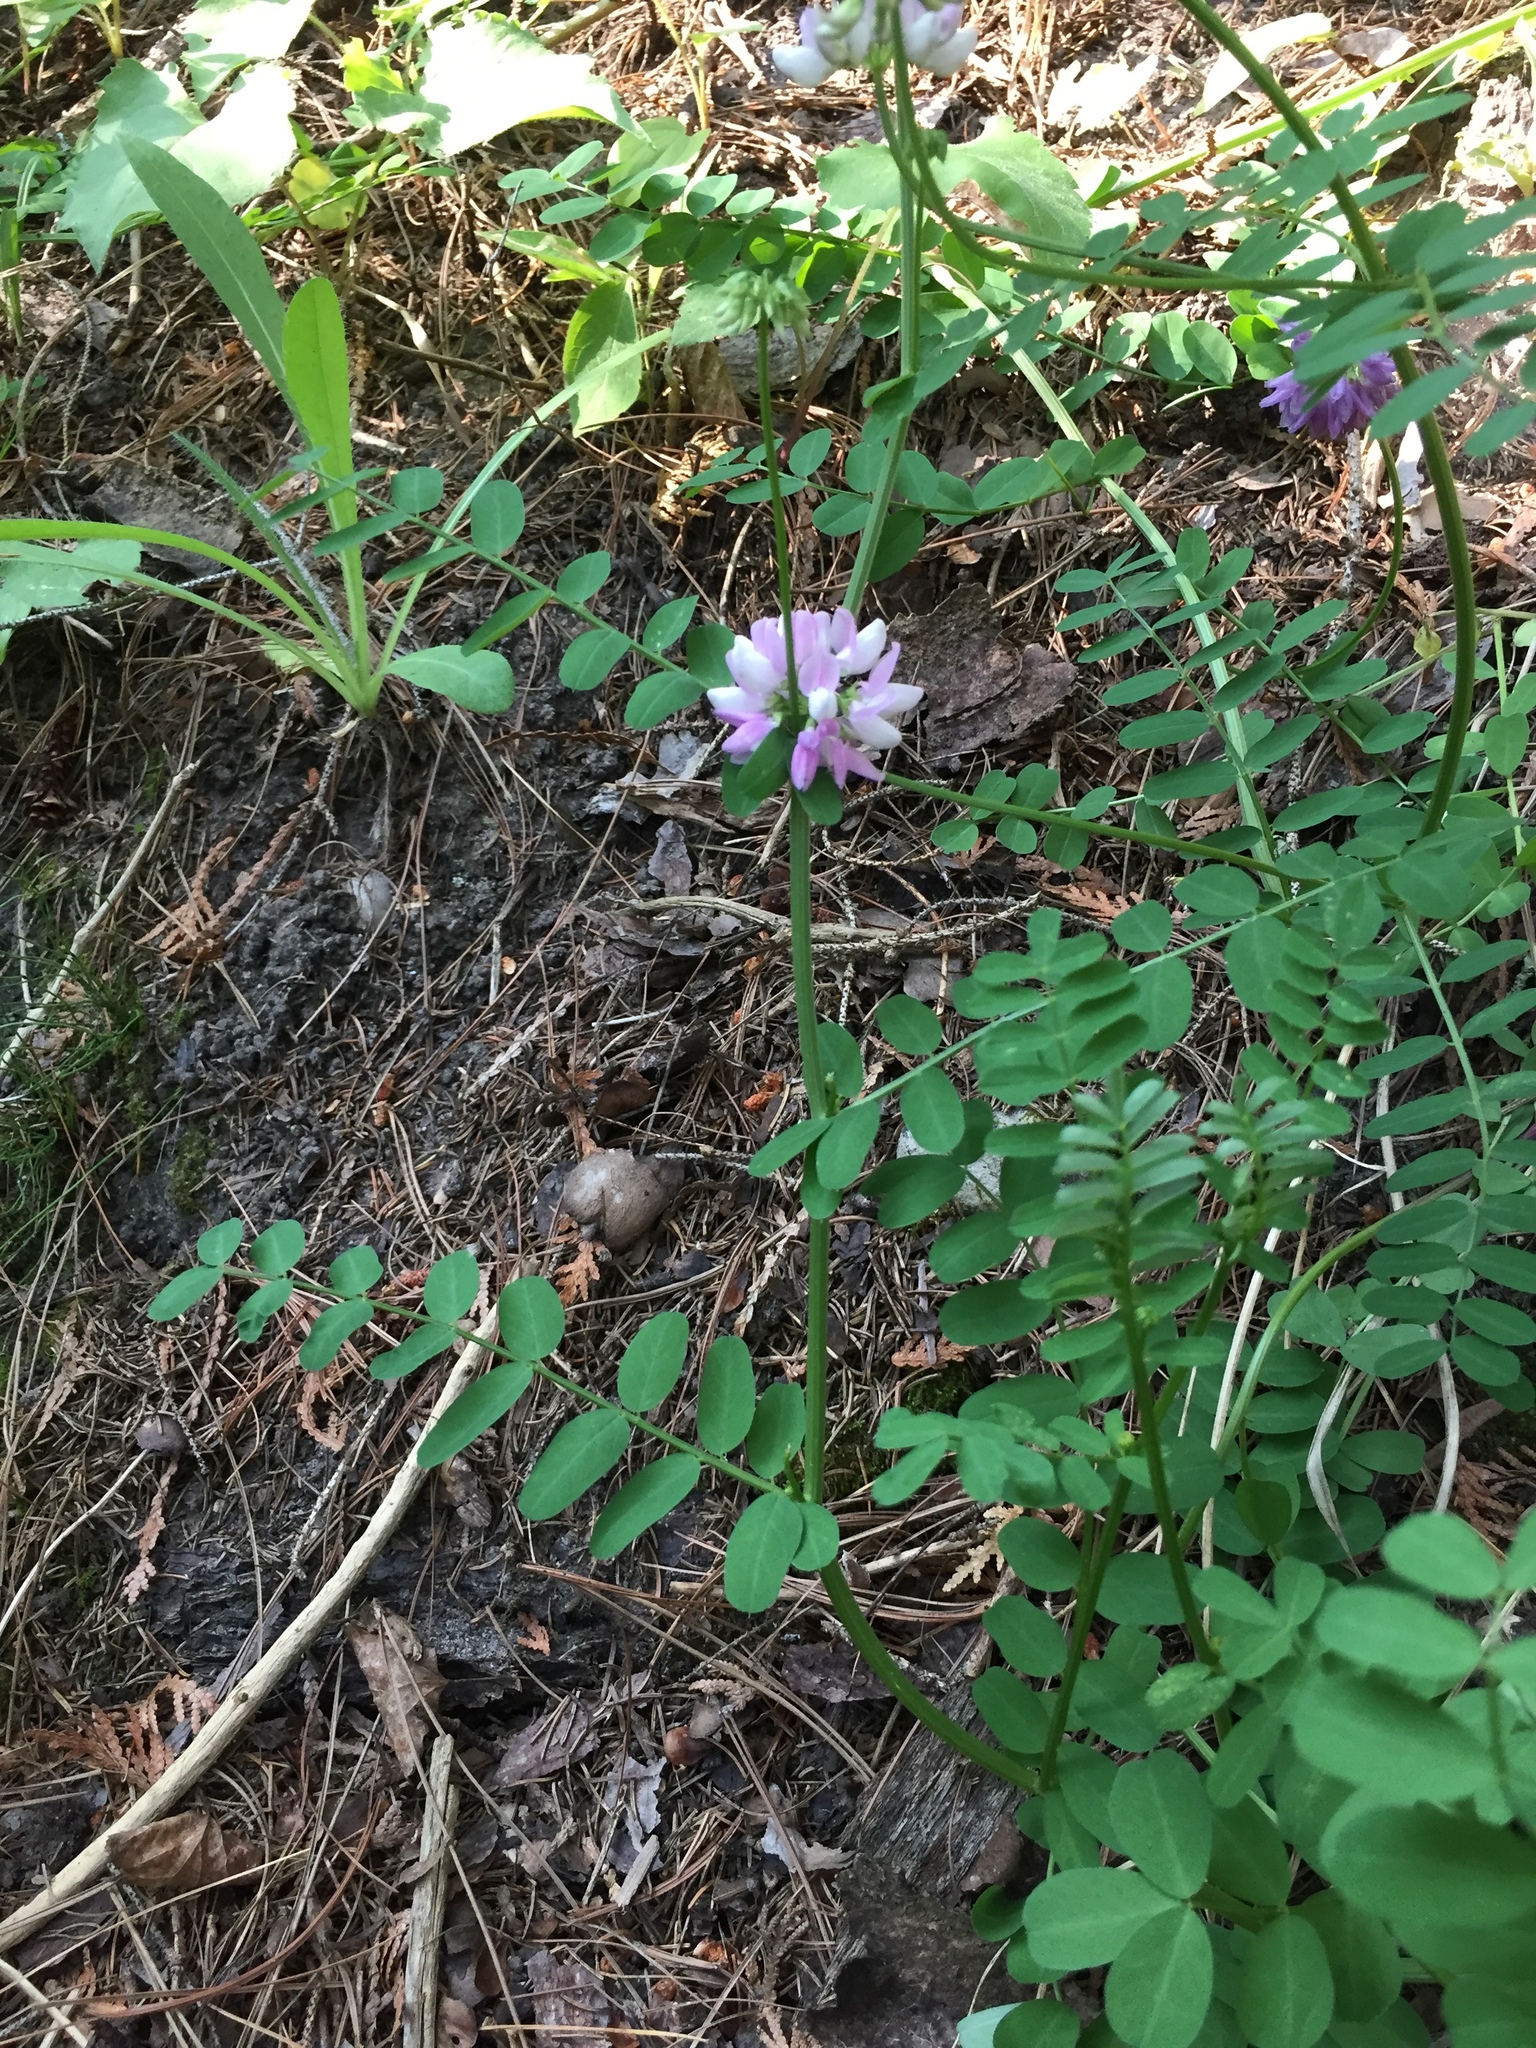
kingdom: Plantae
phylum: Tracheophyta
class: Magnoliopsida
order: Fabales
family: Fabaceae
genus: Coronilla
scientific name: Coronilla varia
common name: Crownvetch
